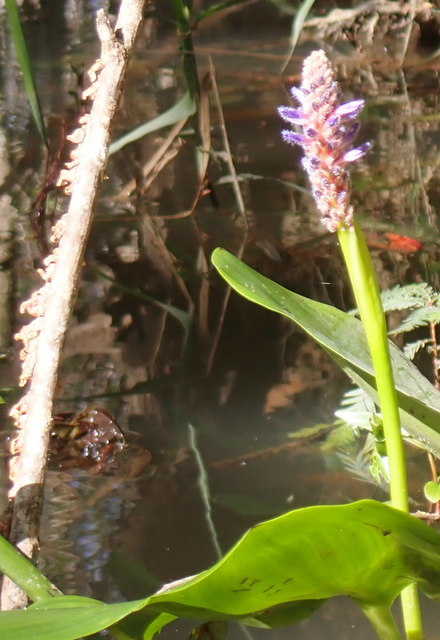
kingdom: Plantae
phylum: Tracheophyta
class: Liliopsida
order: Commelinales
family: Pontederiaceae
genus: Pontederia
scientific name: Pontederia cordata
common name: Pickerelweed
